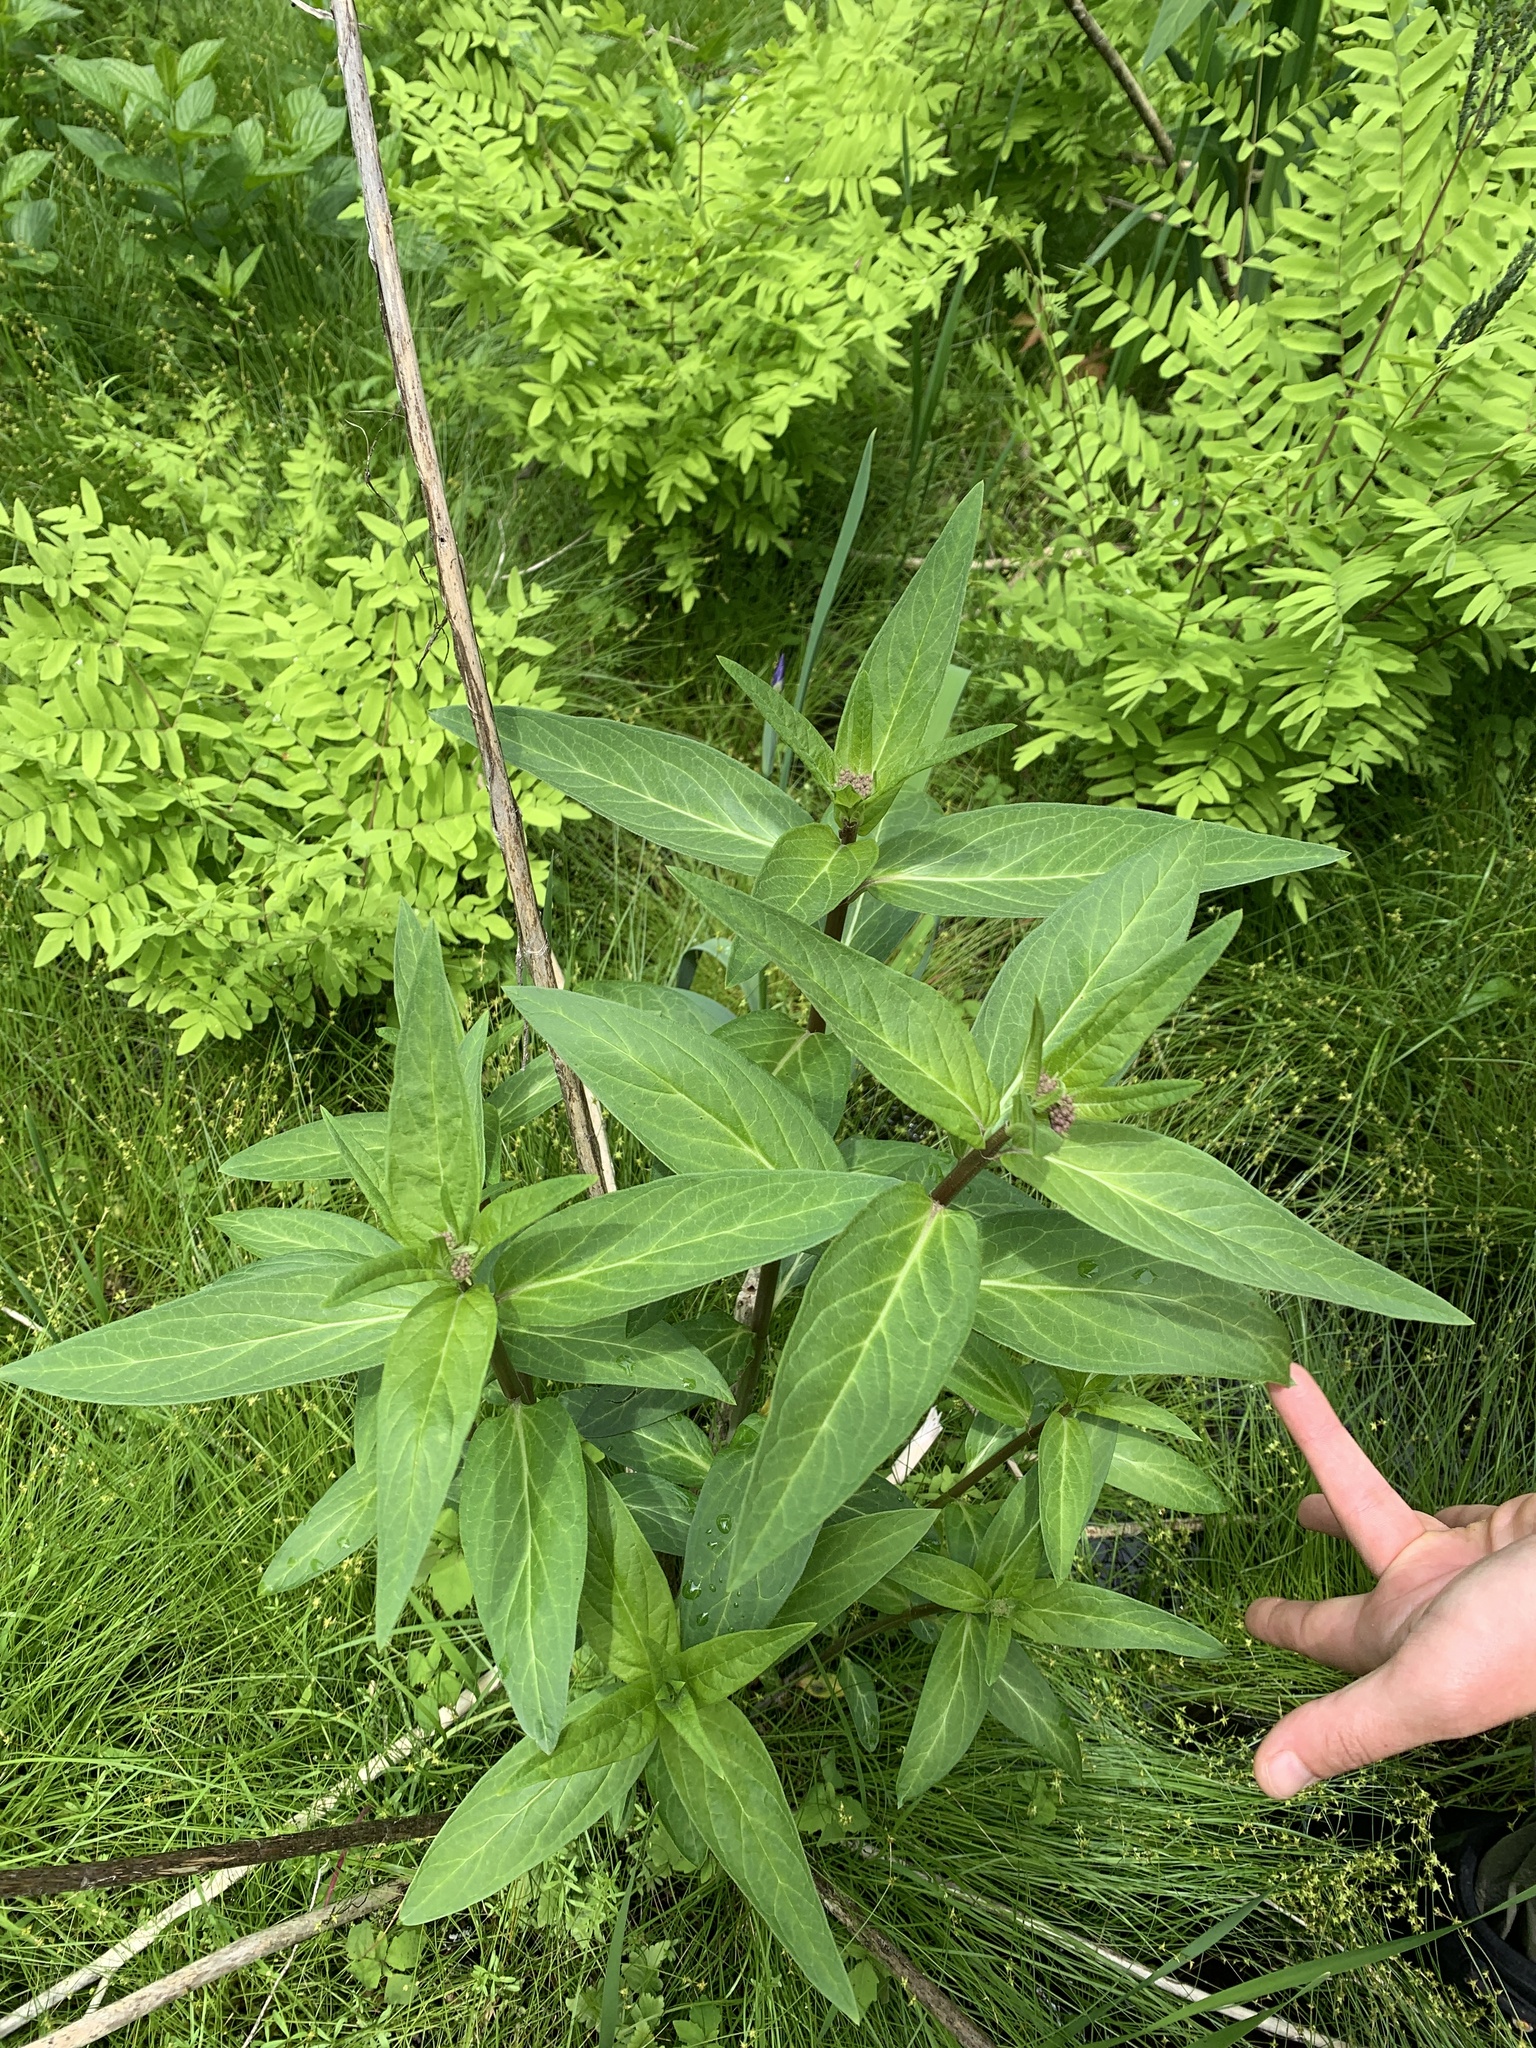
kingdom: Plantae
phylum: Tracheophyta
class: Magnoliopsida
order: Gentianales
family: Apocynaceae
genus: Asclepias
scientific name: Asclepias incarnata
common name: Swamp milkweed
